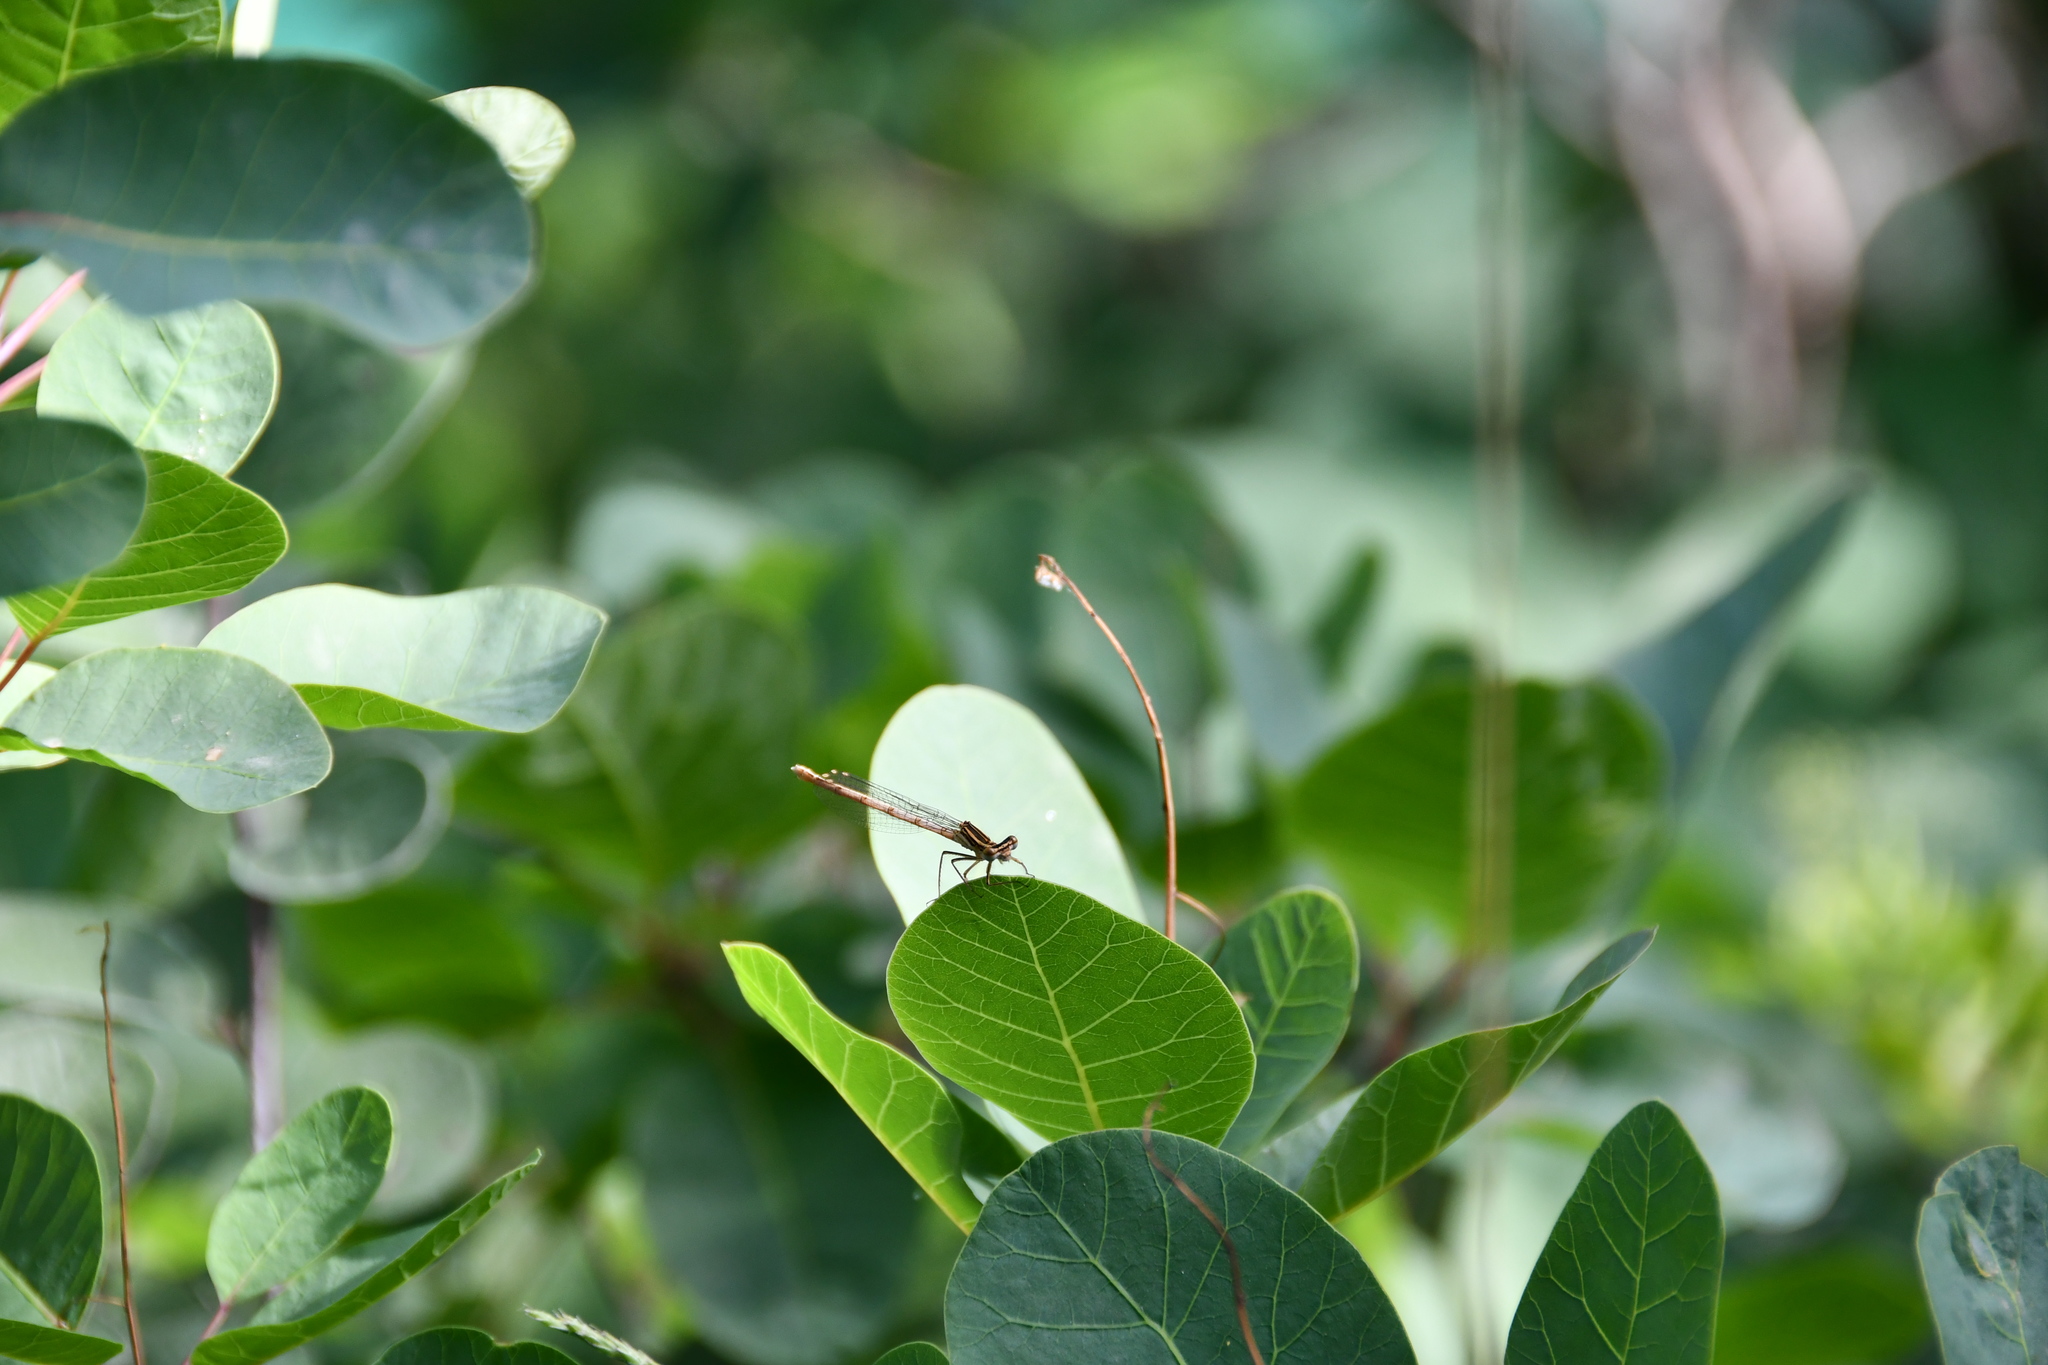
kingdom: Animalia
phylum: Arthropoda
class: Insecta
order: Odonata
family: Platycnemididae
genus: Platycnemis
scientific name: Platycnemis pennipes
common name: White-legged damselfly
